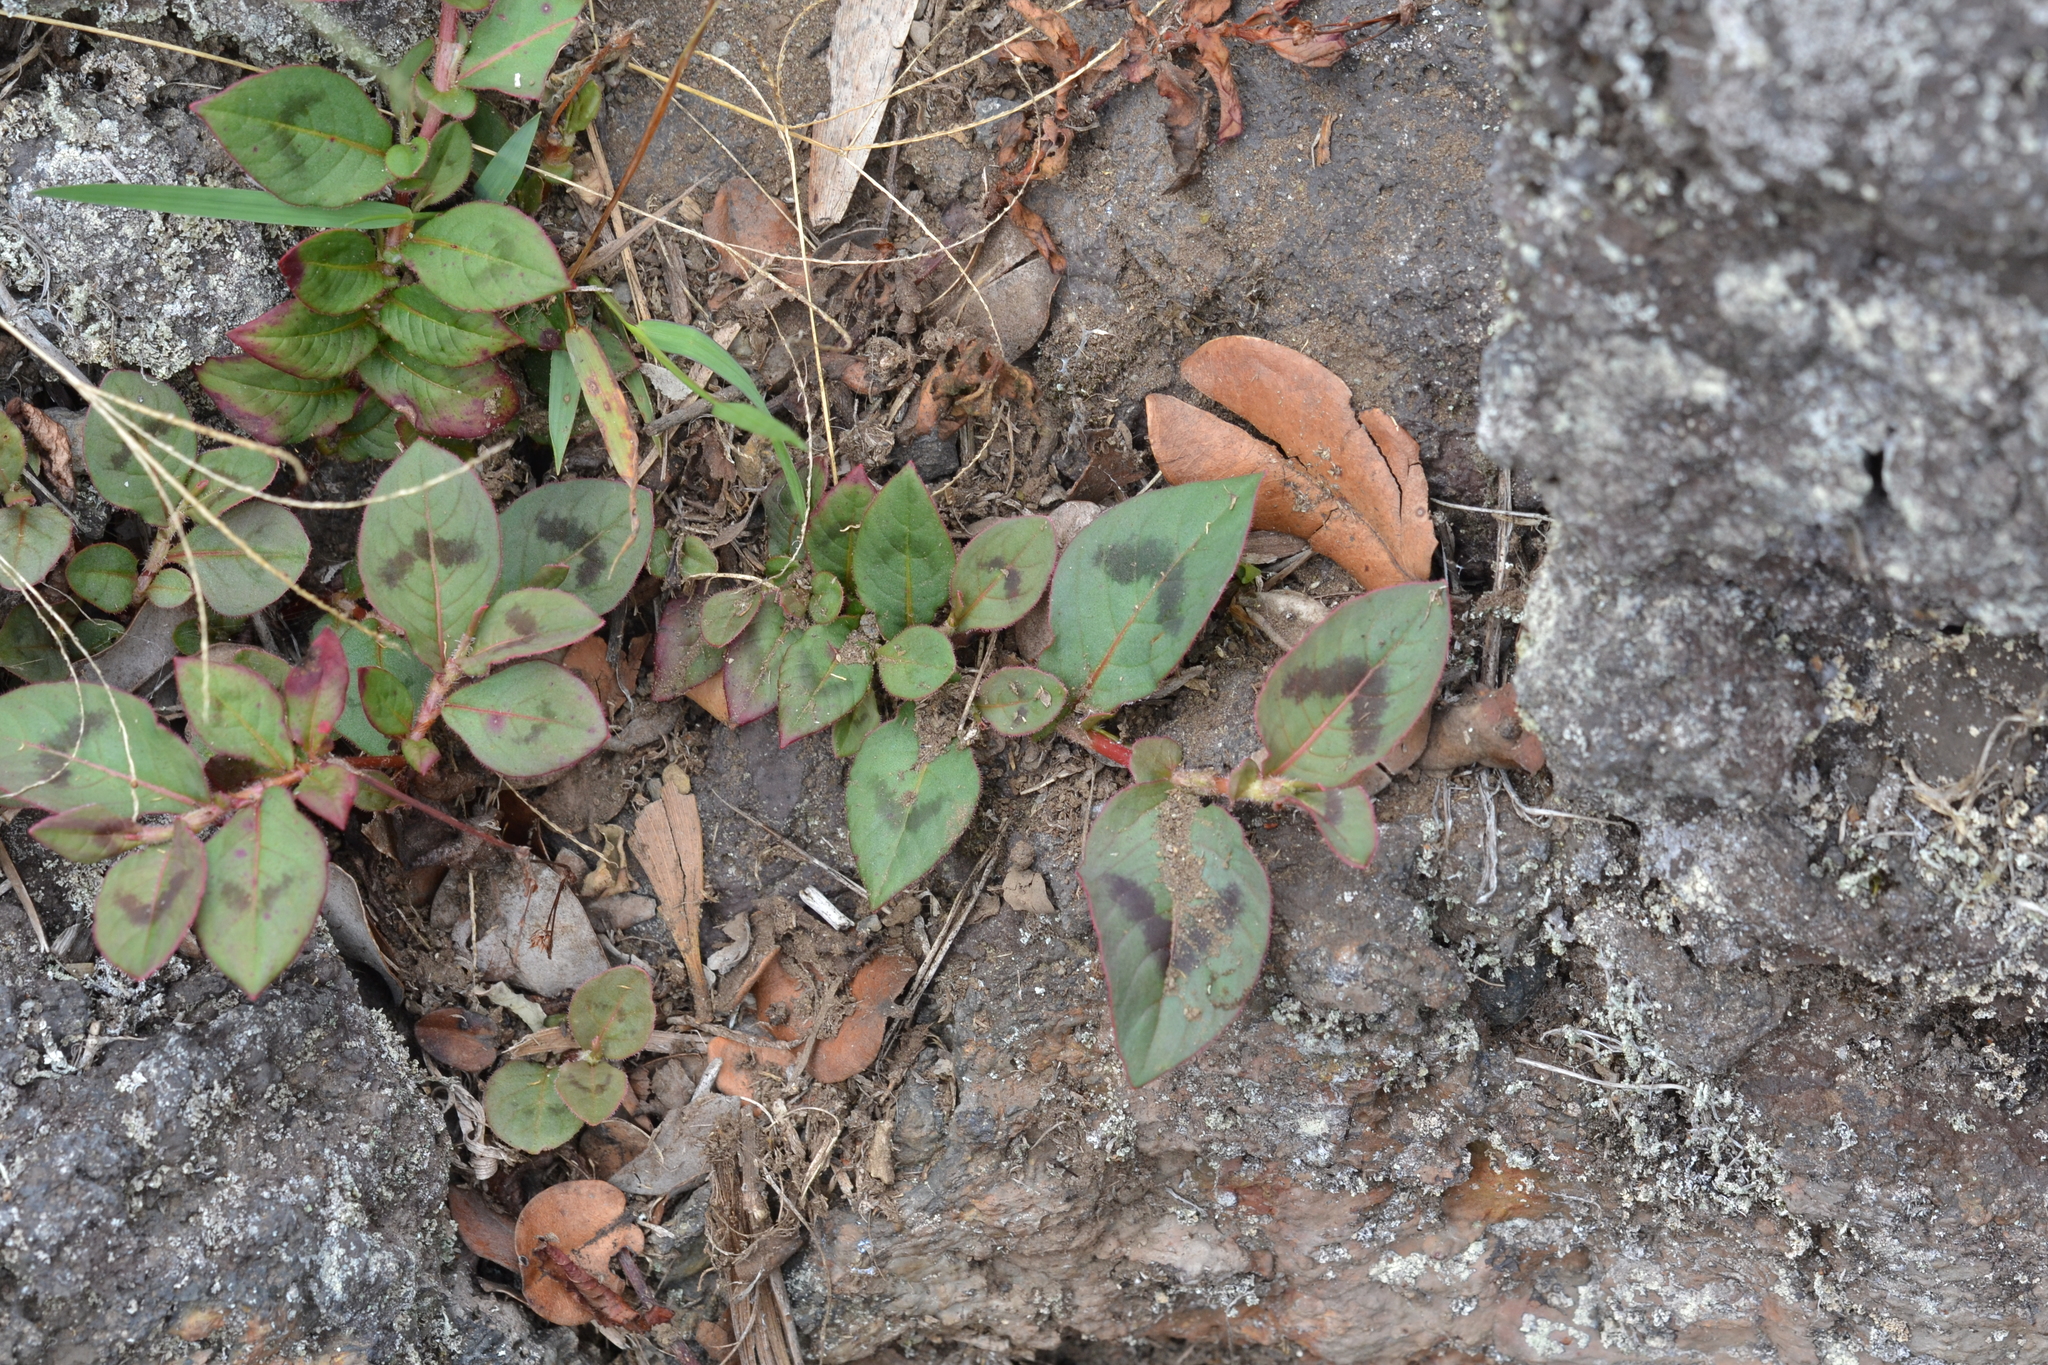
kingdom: Plantae
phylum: Tracheophyta
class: Magnoliopsida
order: Caryophyllales
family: Polygonaceae
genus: Persicaria
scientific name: Persicaria capitata
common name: Pinkhead smartweed
